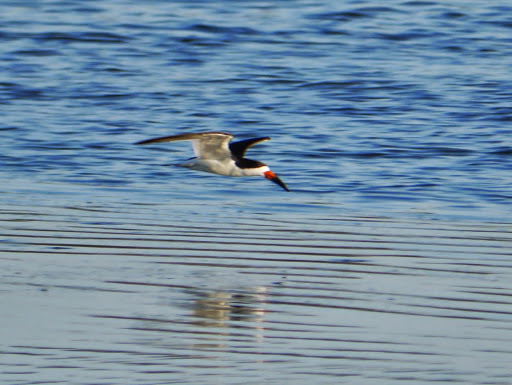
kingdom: Animalia
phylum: Chordata
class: Aves
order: Charadriiformes
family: Laridae
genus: Rynchops
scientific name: Rynchops niger
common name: Black skimmer
